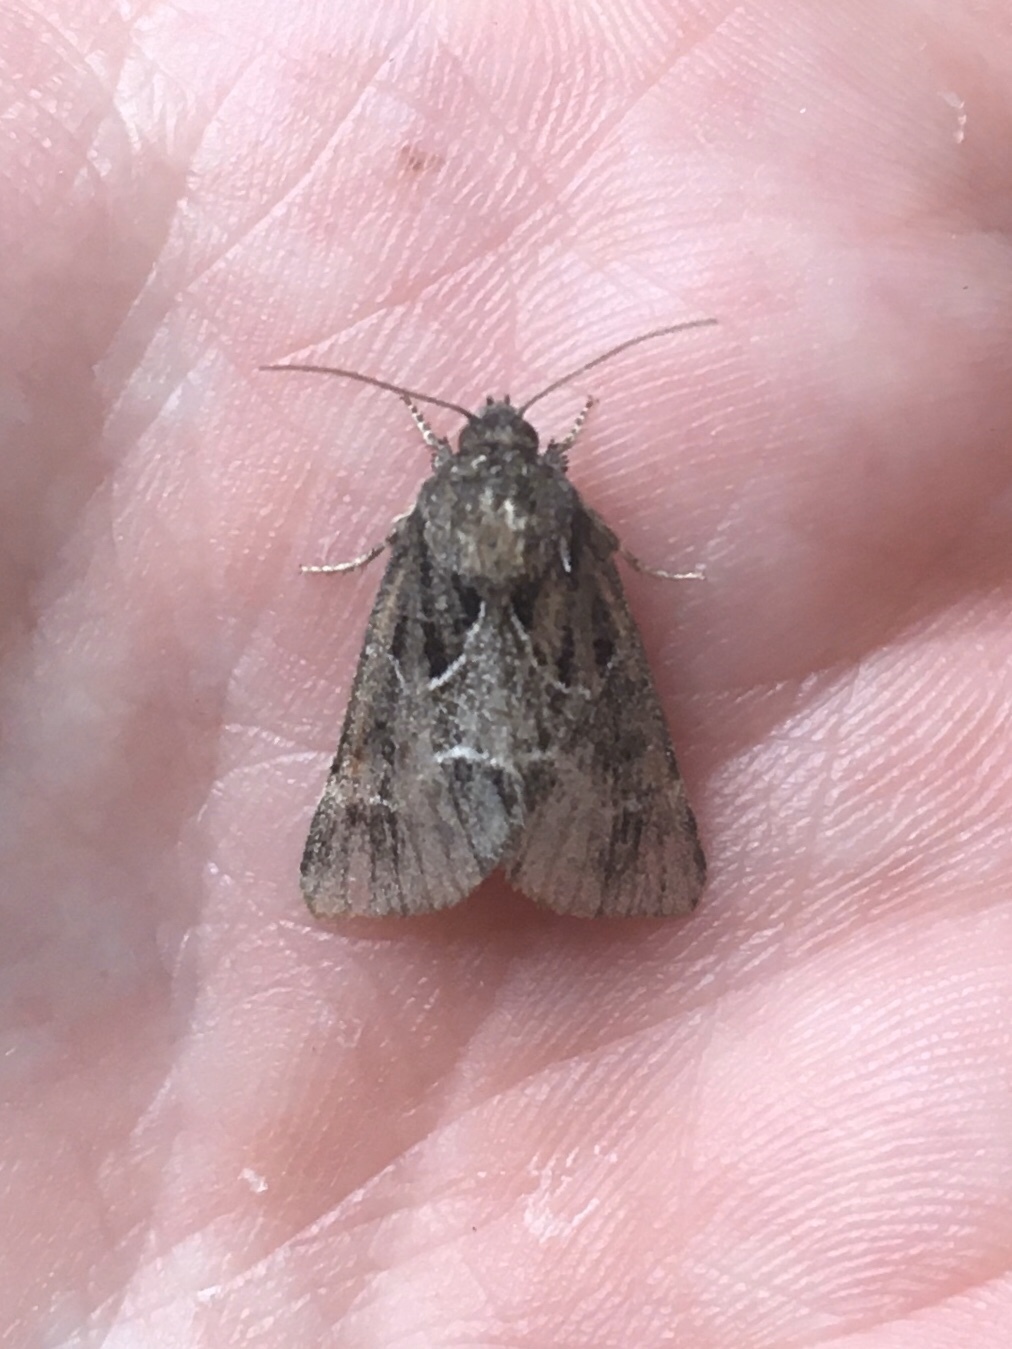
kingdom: Animalia
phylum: Arthropoda
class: Insecta
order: Lepidoptera
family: Noctuidae
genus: Schinia
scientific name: Schinia rivulosa
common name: Scarce meal-moth
